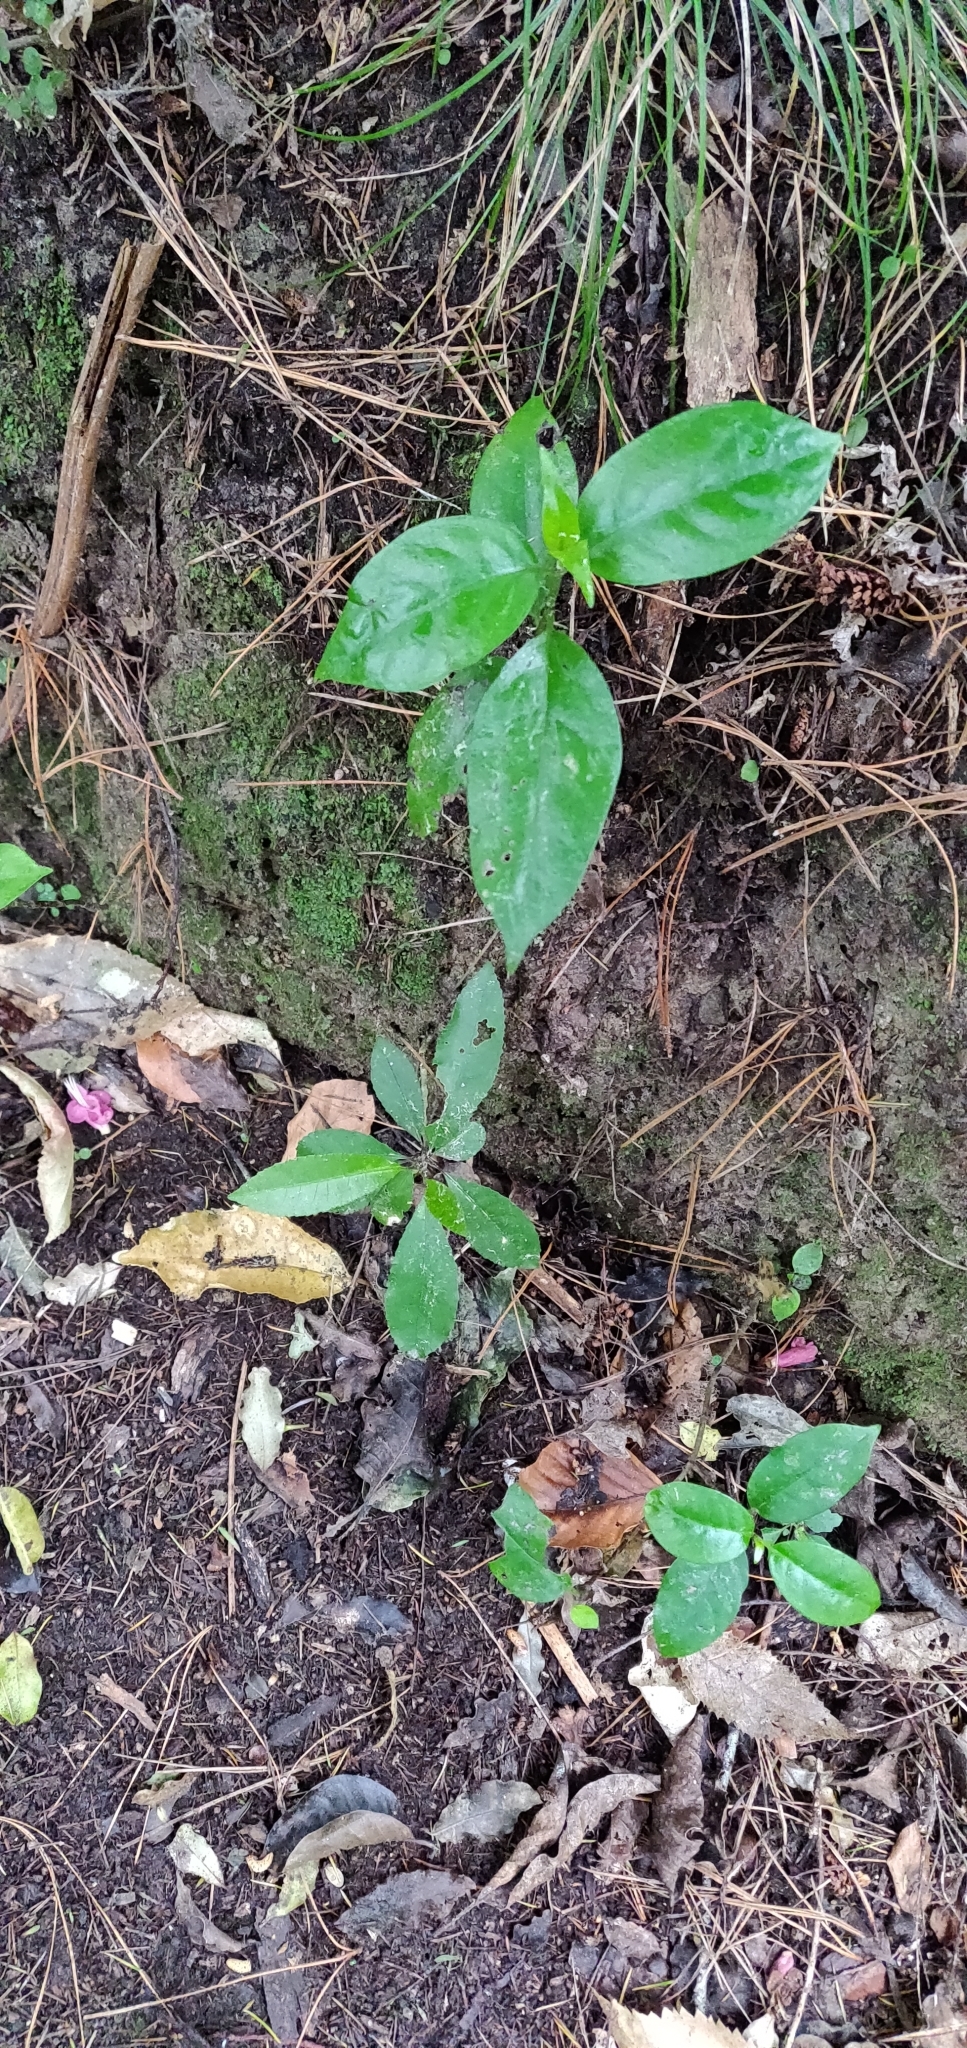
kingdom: Plantae
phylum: Tracheophyta
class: Magnoliopsida
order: Gentianales
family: Loganiaceae
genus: Geniostoma
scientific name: Geniostoma ligustrifolium
